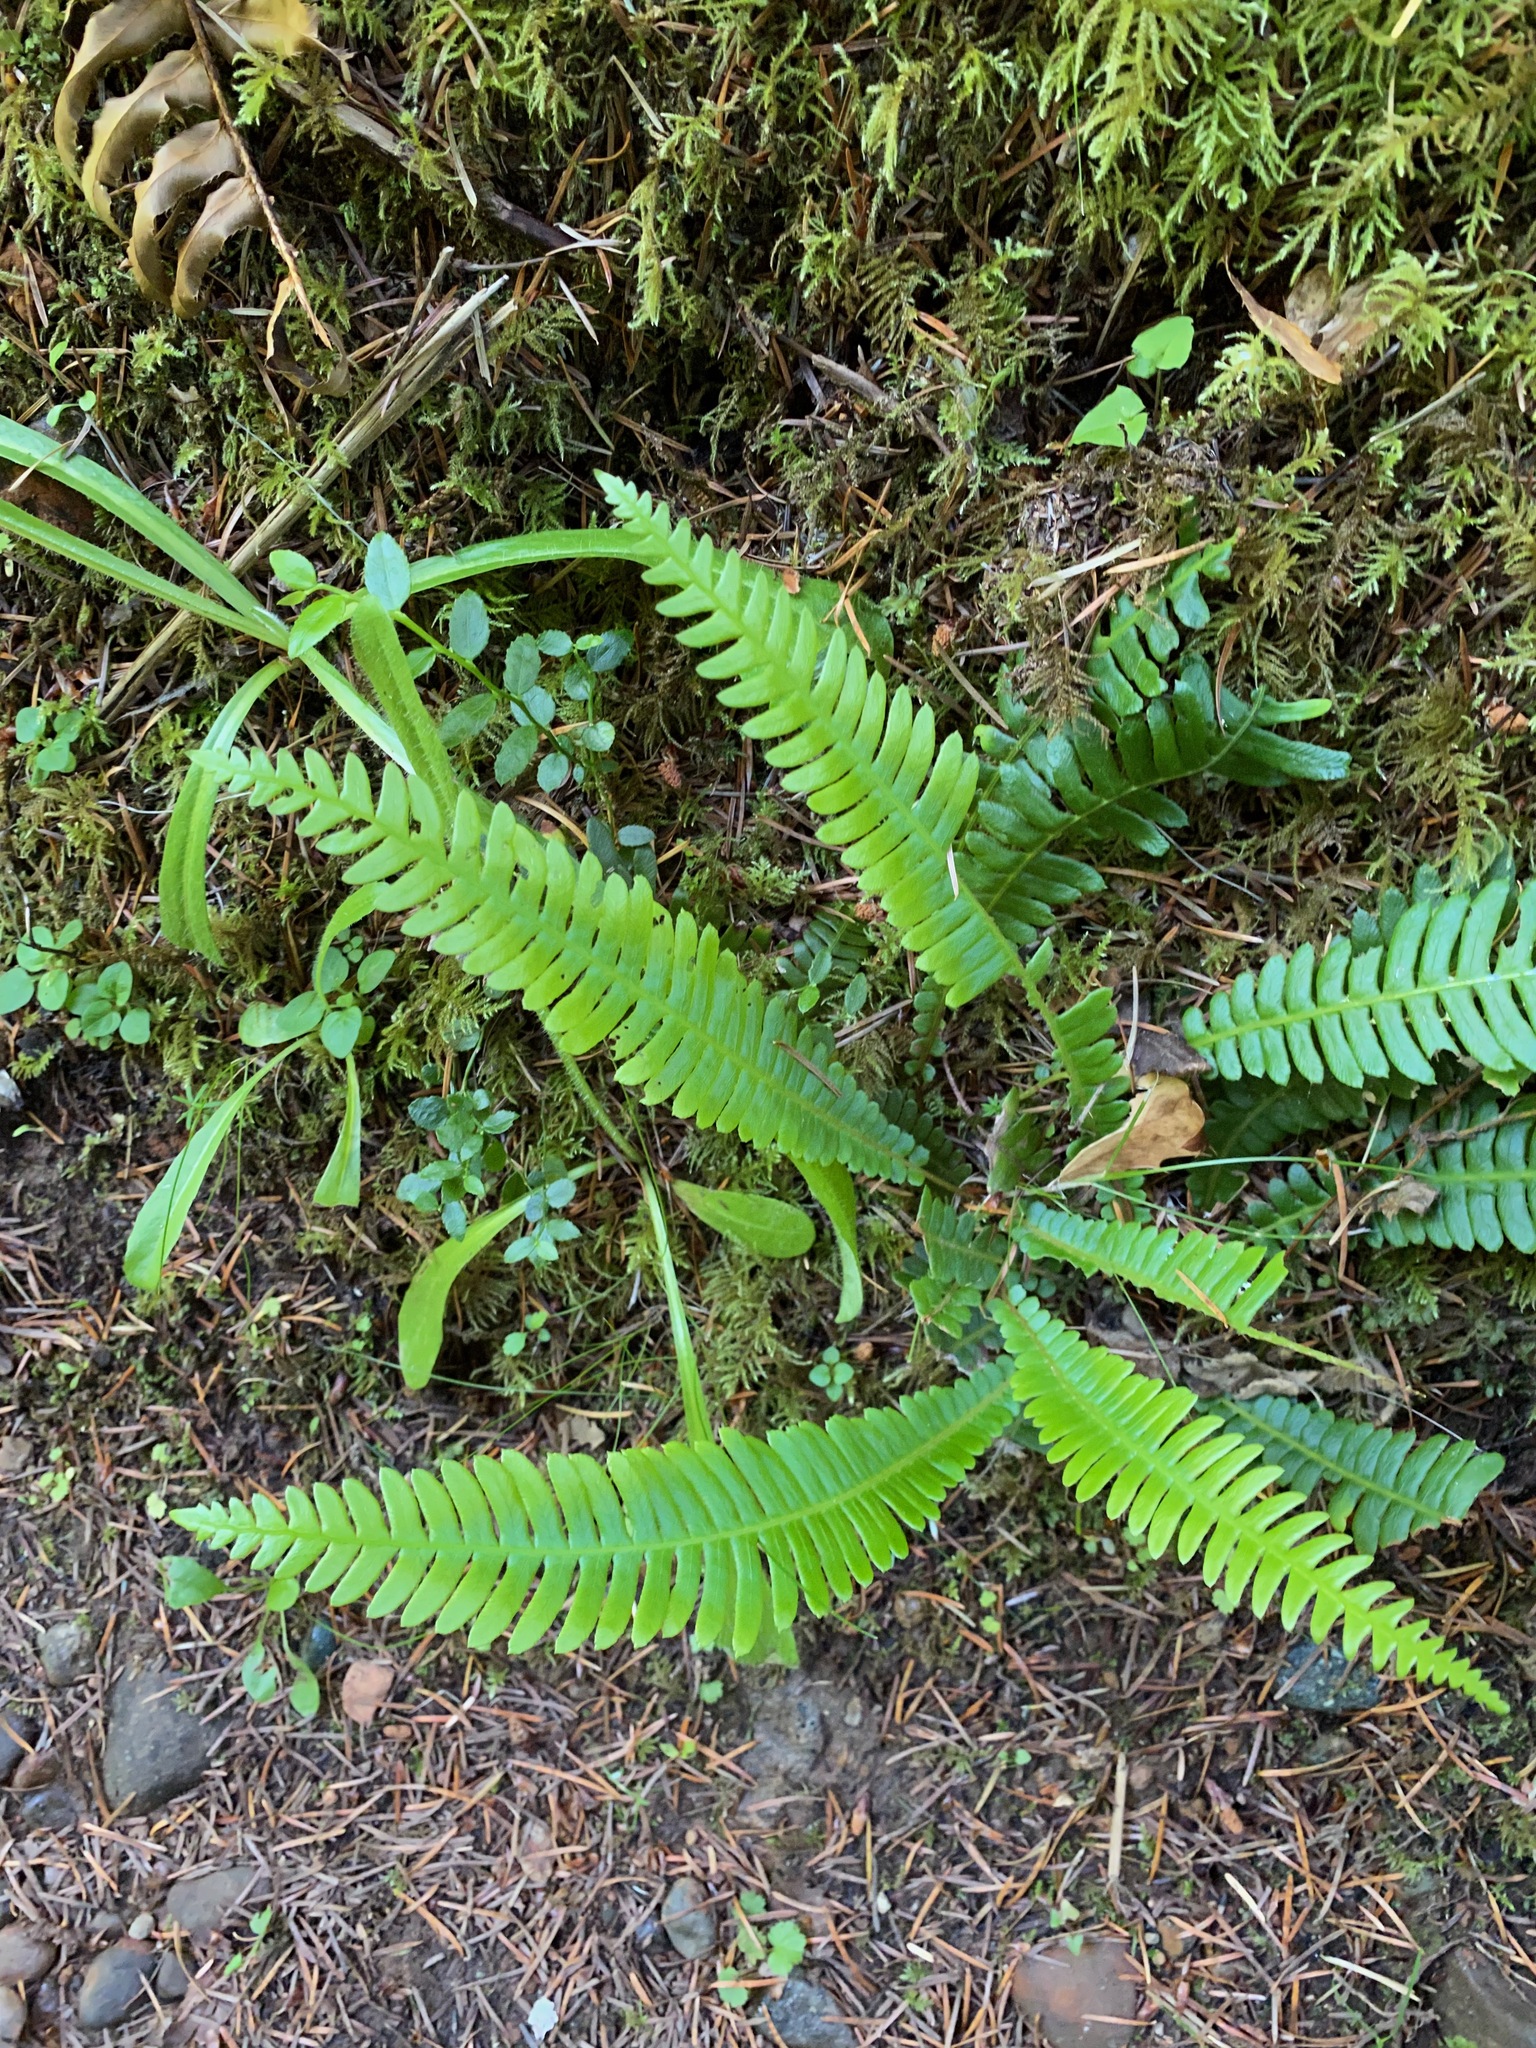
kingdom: Plantae
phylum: Tracheophyta
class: Polypodiopsida
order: Polypodiales
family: Blechnaceae
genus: Struthiopteris
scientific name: Struthiopteris spicant
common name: Deer fern
